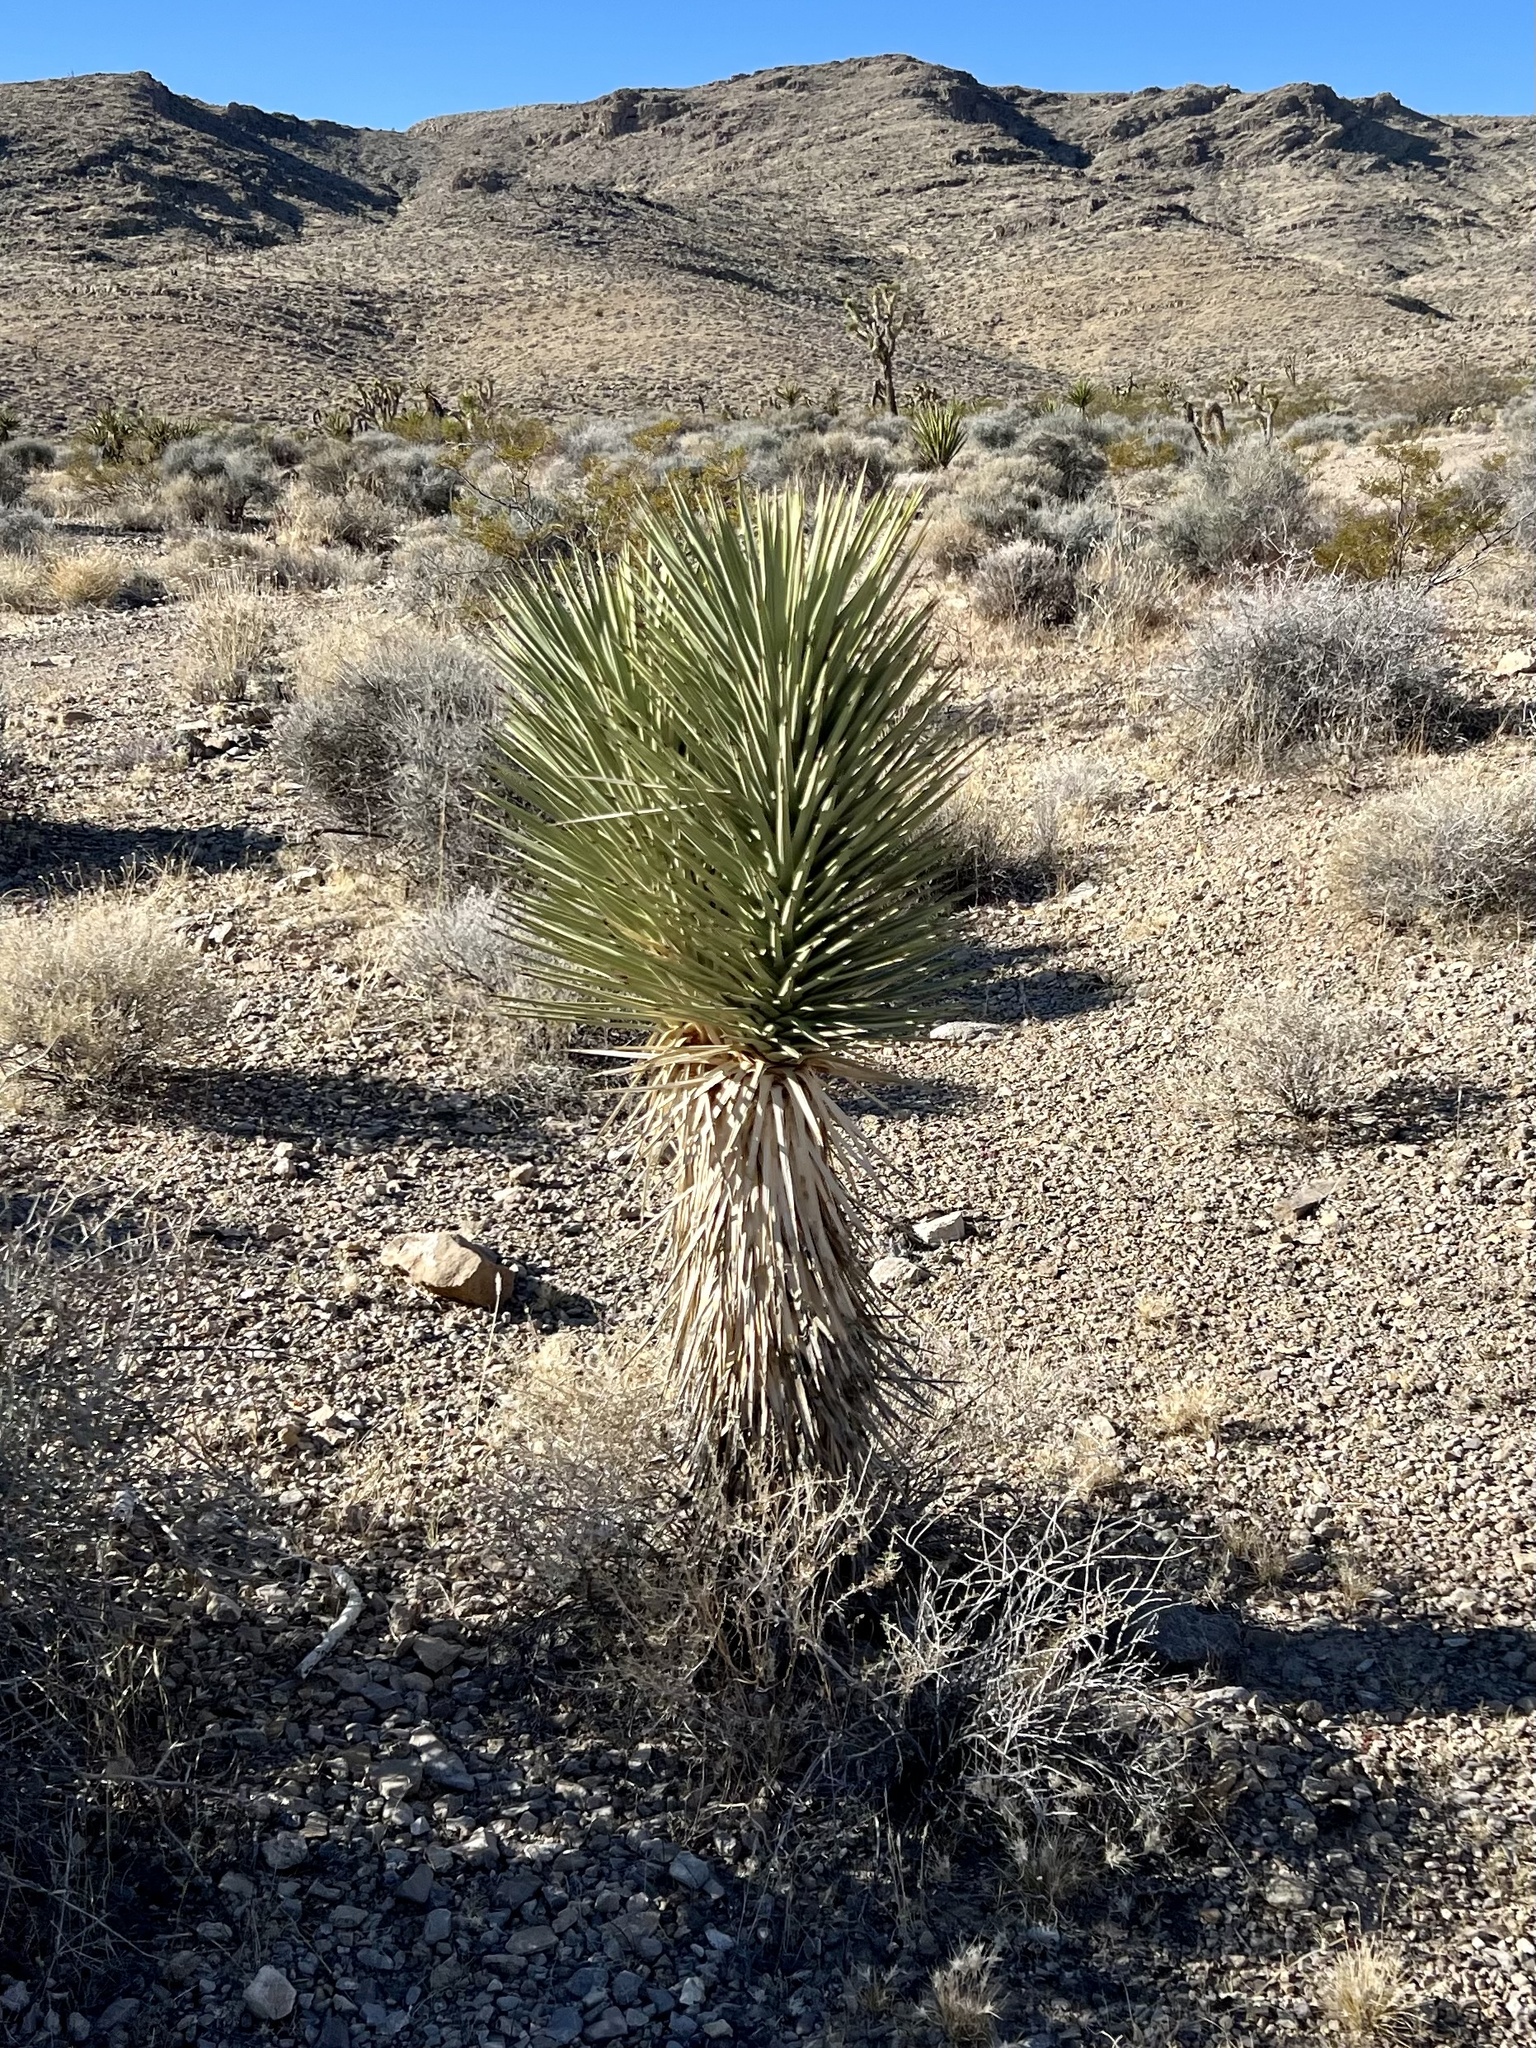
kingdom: Plantae
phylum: Tracheophyta
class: Liliopsida
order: Asparagales
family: Asparagaceae
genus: Yucca
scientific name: Yucca brevifolia
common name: Joshua tree
